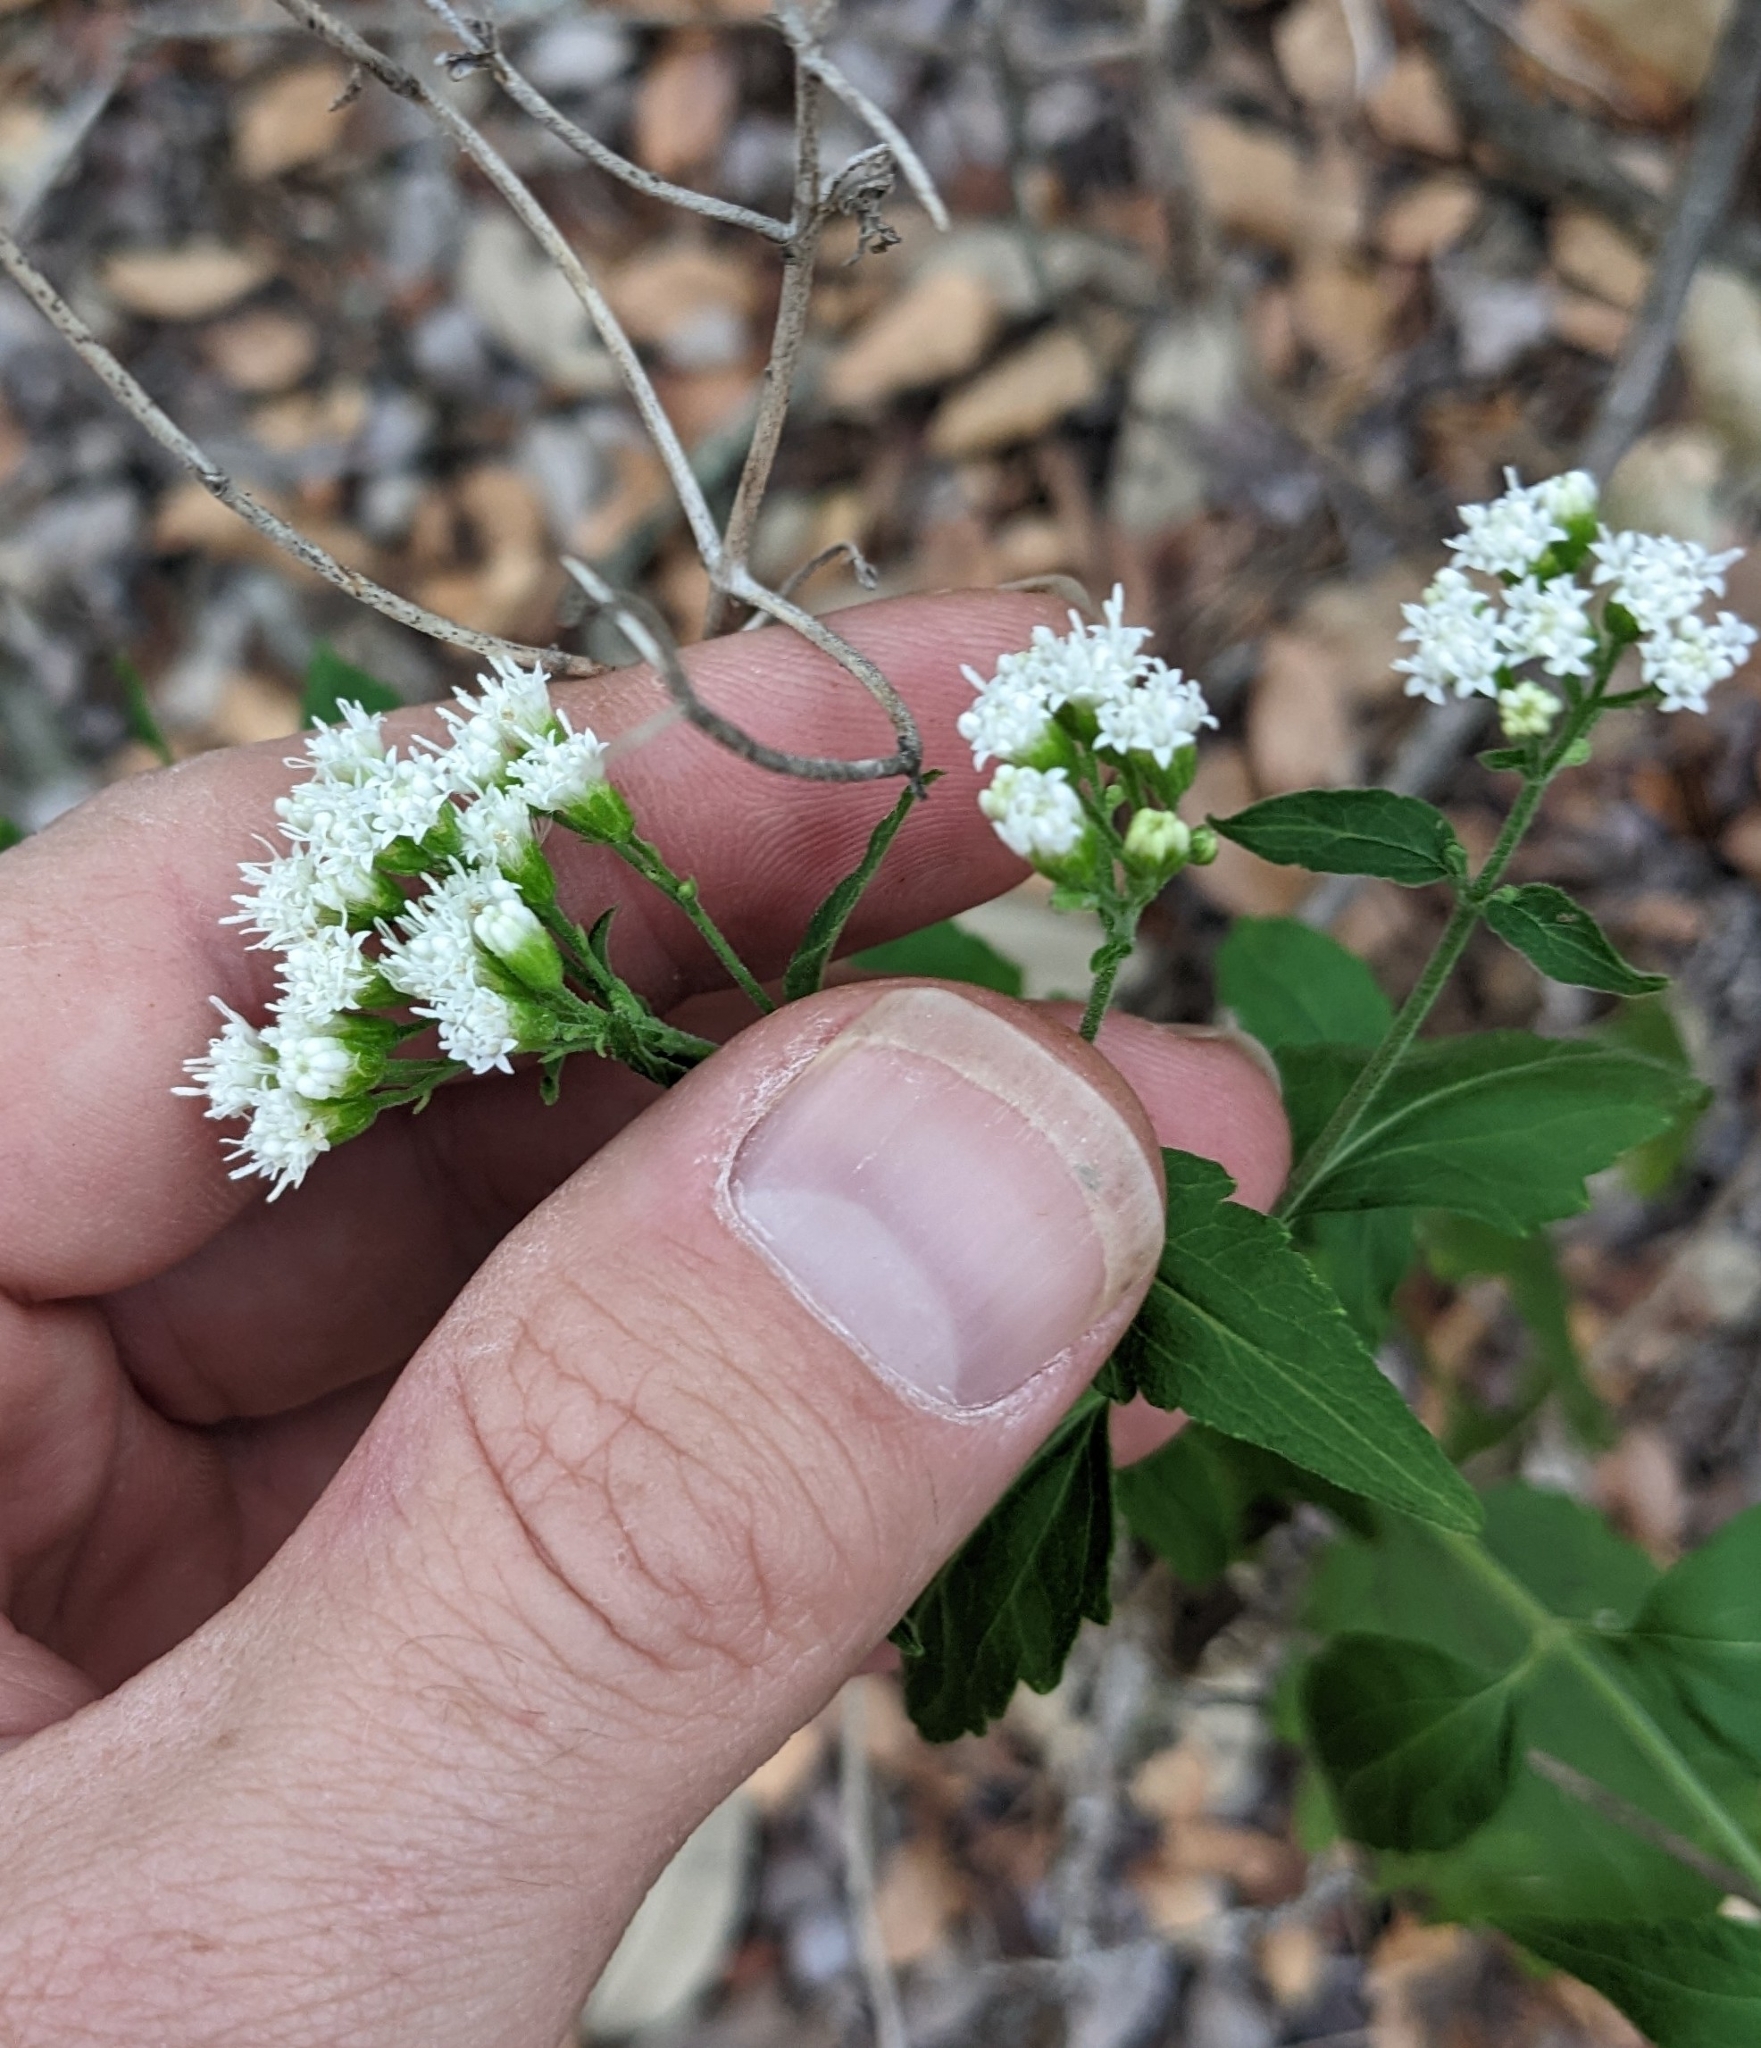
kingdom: Plantae
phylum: Tracheophyta
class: Magnoliopsida
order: Asterales
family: Asteraceae
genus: Ageratina
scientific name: Ageratina altissima
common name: White snakeroot
